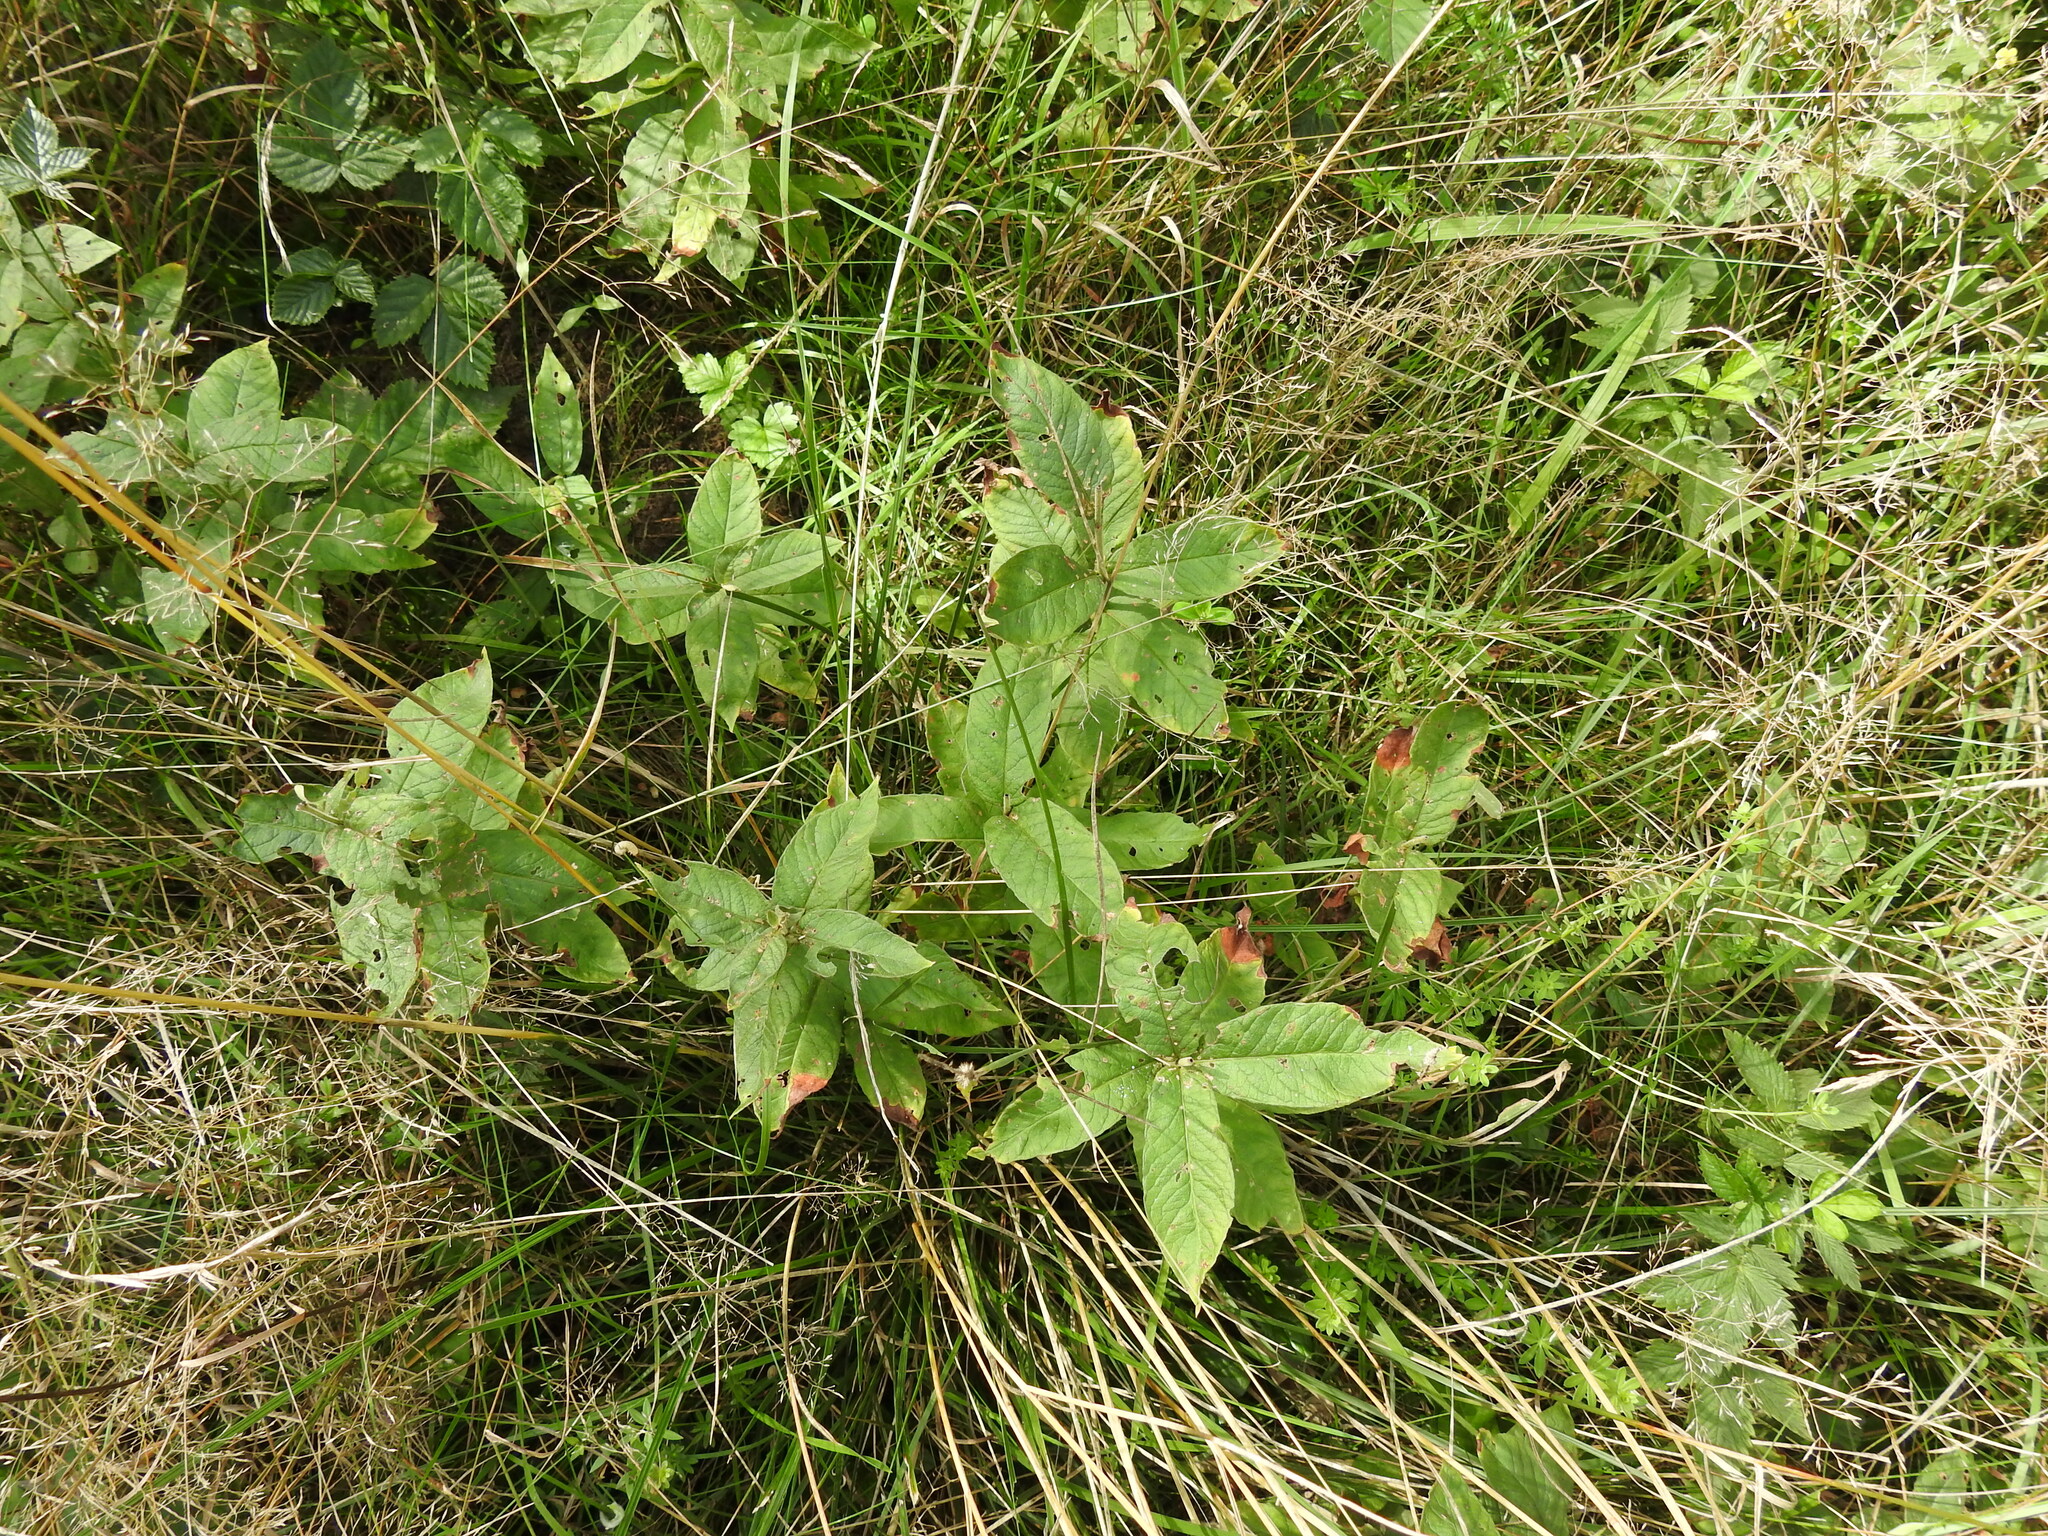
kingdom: Plantae
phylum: Tracheophyta
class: Magnoliopsida
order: Ericales
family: Primulaceae
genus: Lysimachia
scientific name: Lysimachia vulgaris
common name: Yellow loosestrife
